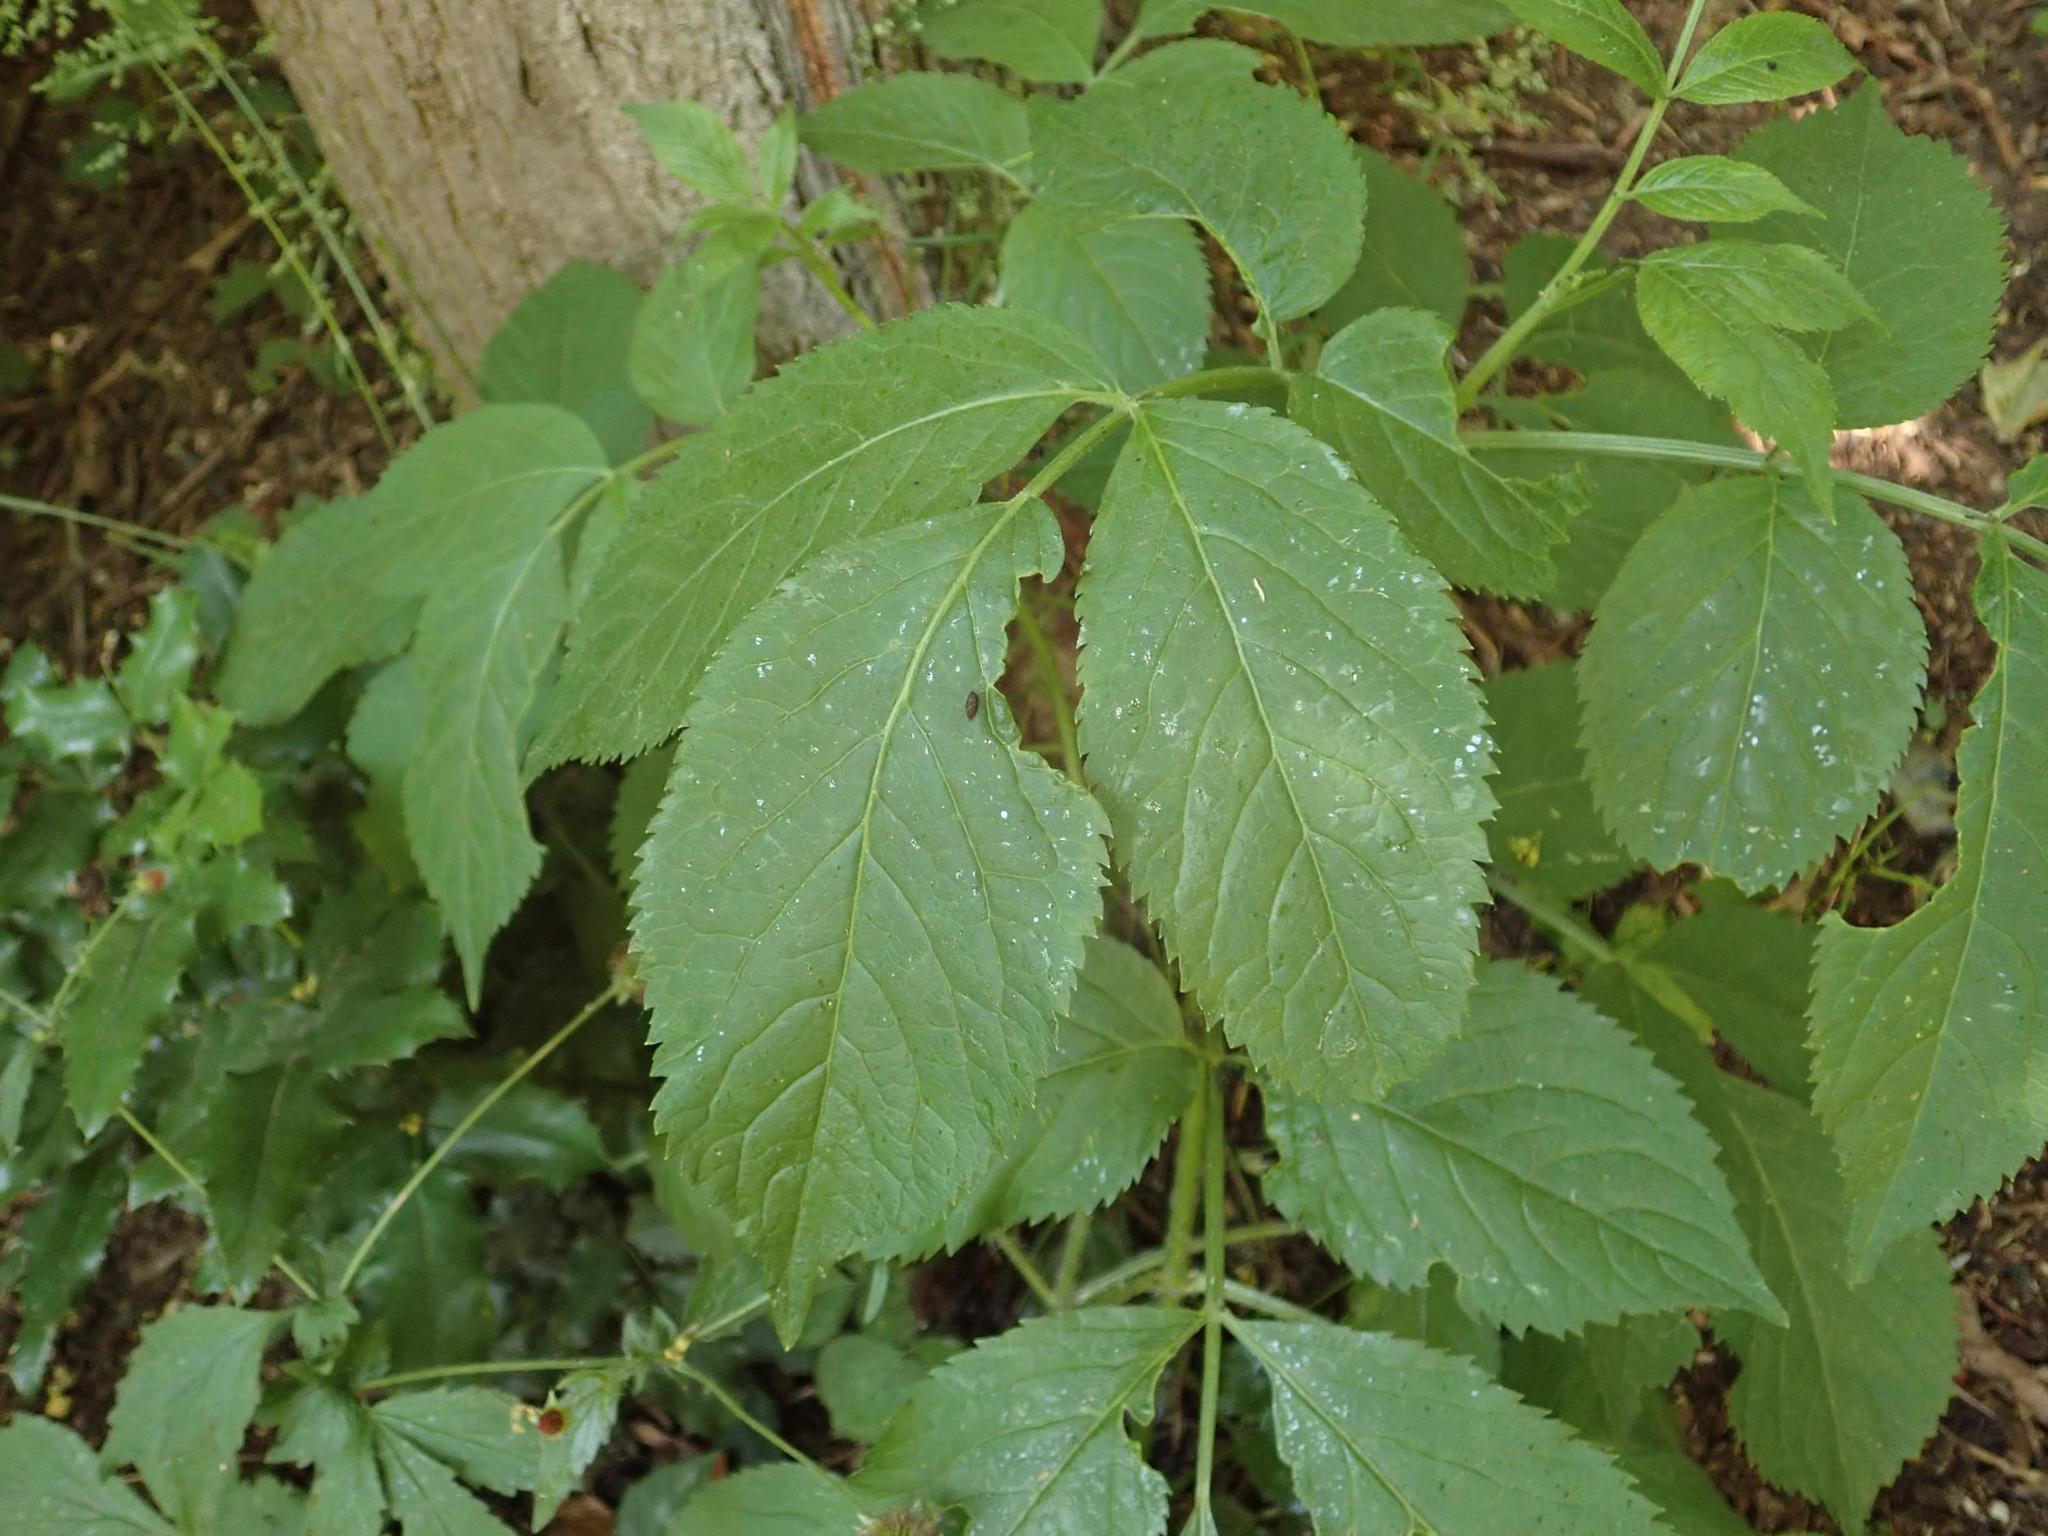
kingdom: Plantae
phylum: Tracheophyta
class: Magnoliopsida
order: Dipsacales
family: Viburnaceae
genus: Sambucus
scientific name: Sambucus nigra
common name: Elder
